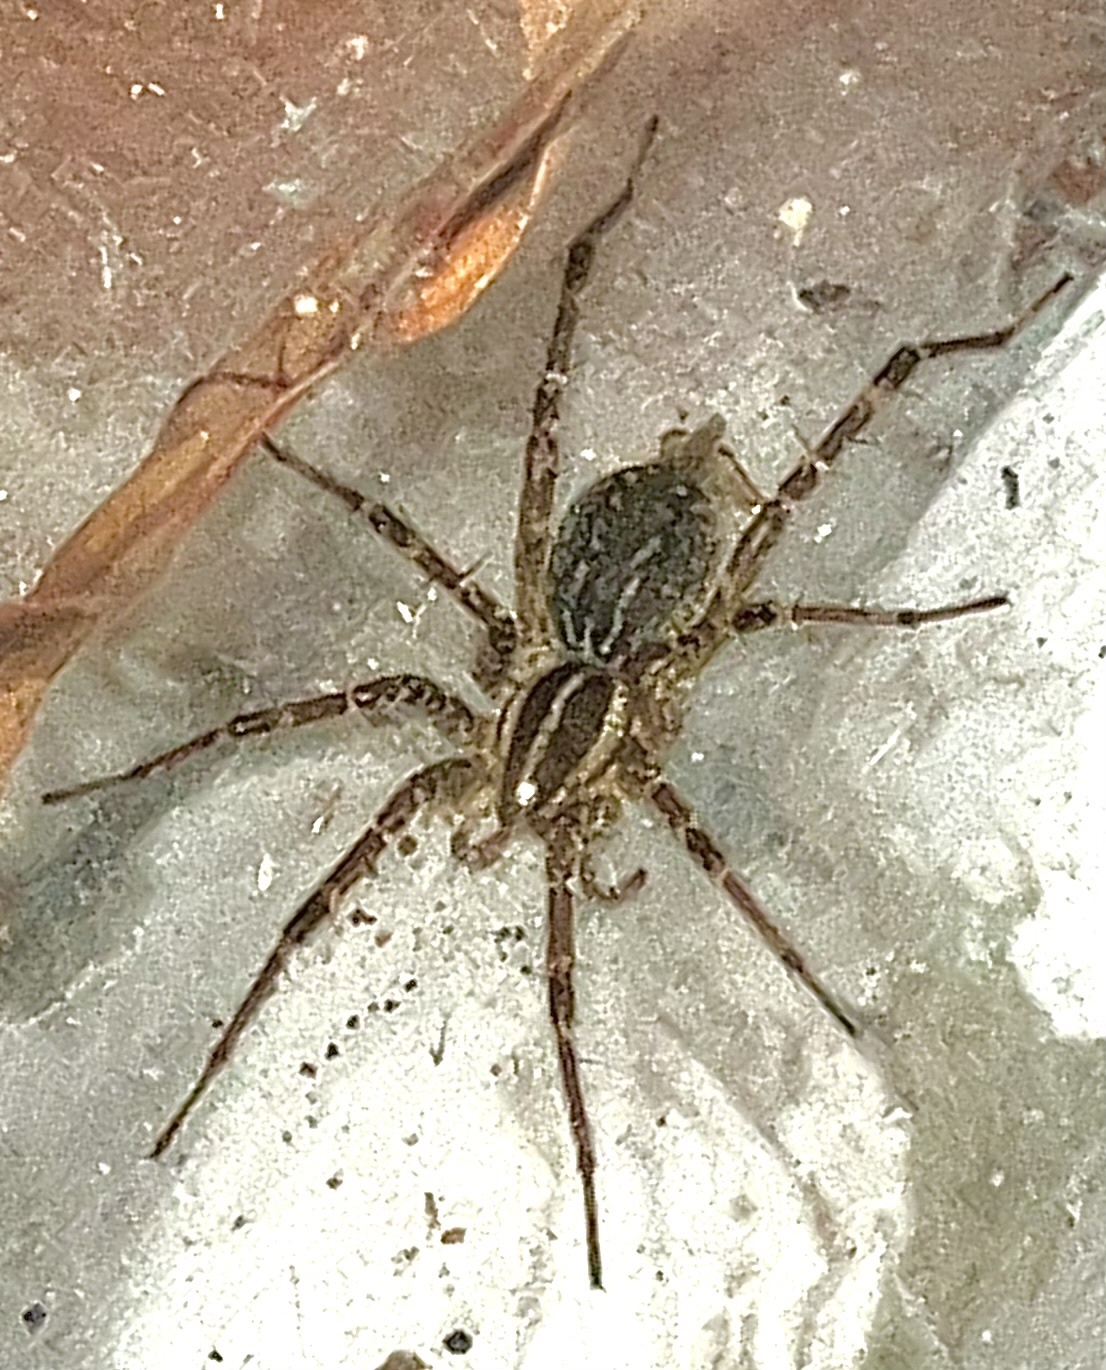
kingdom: Animalia
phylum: Arthropoda
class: Arachnida
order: Araneae
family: Agelenidae
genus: Agelenopsis
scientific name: Agelenopsis
